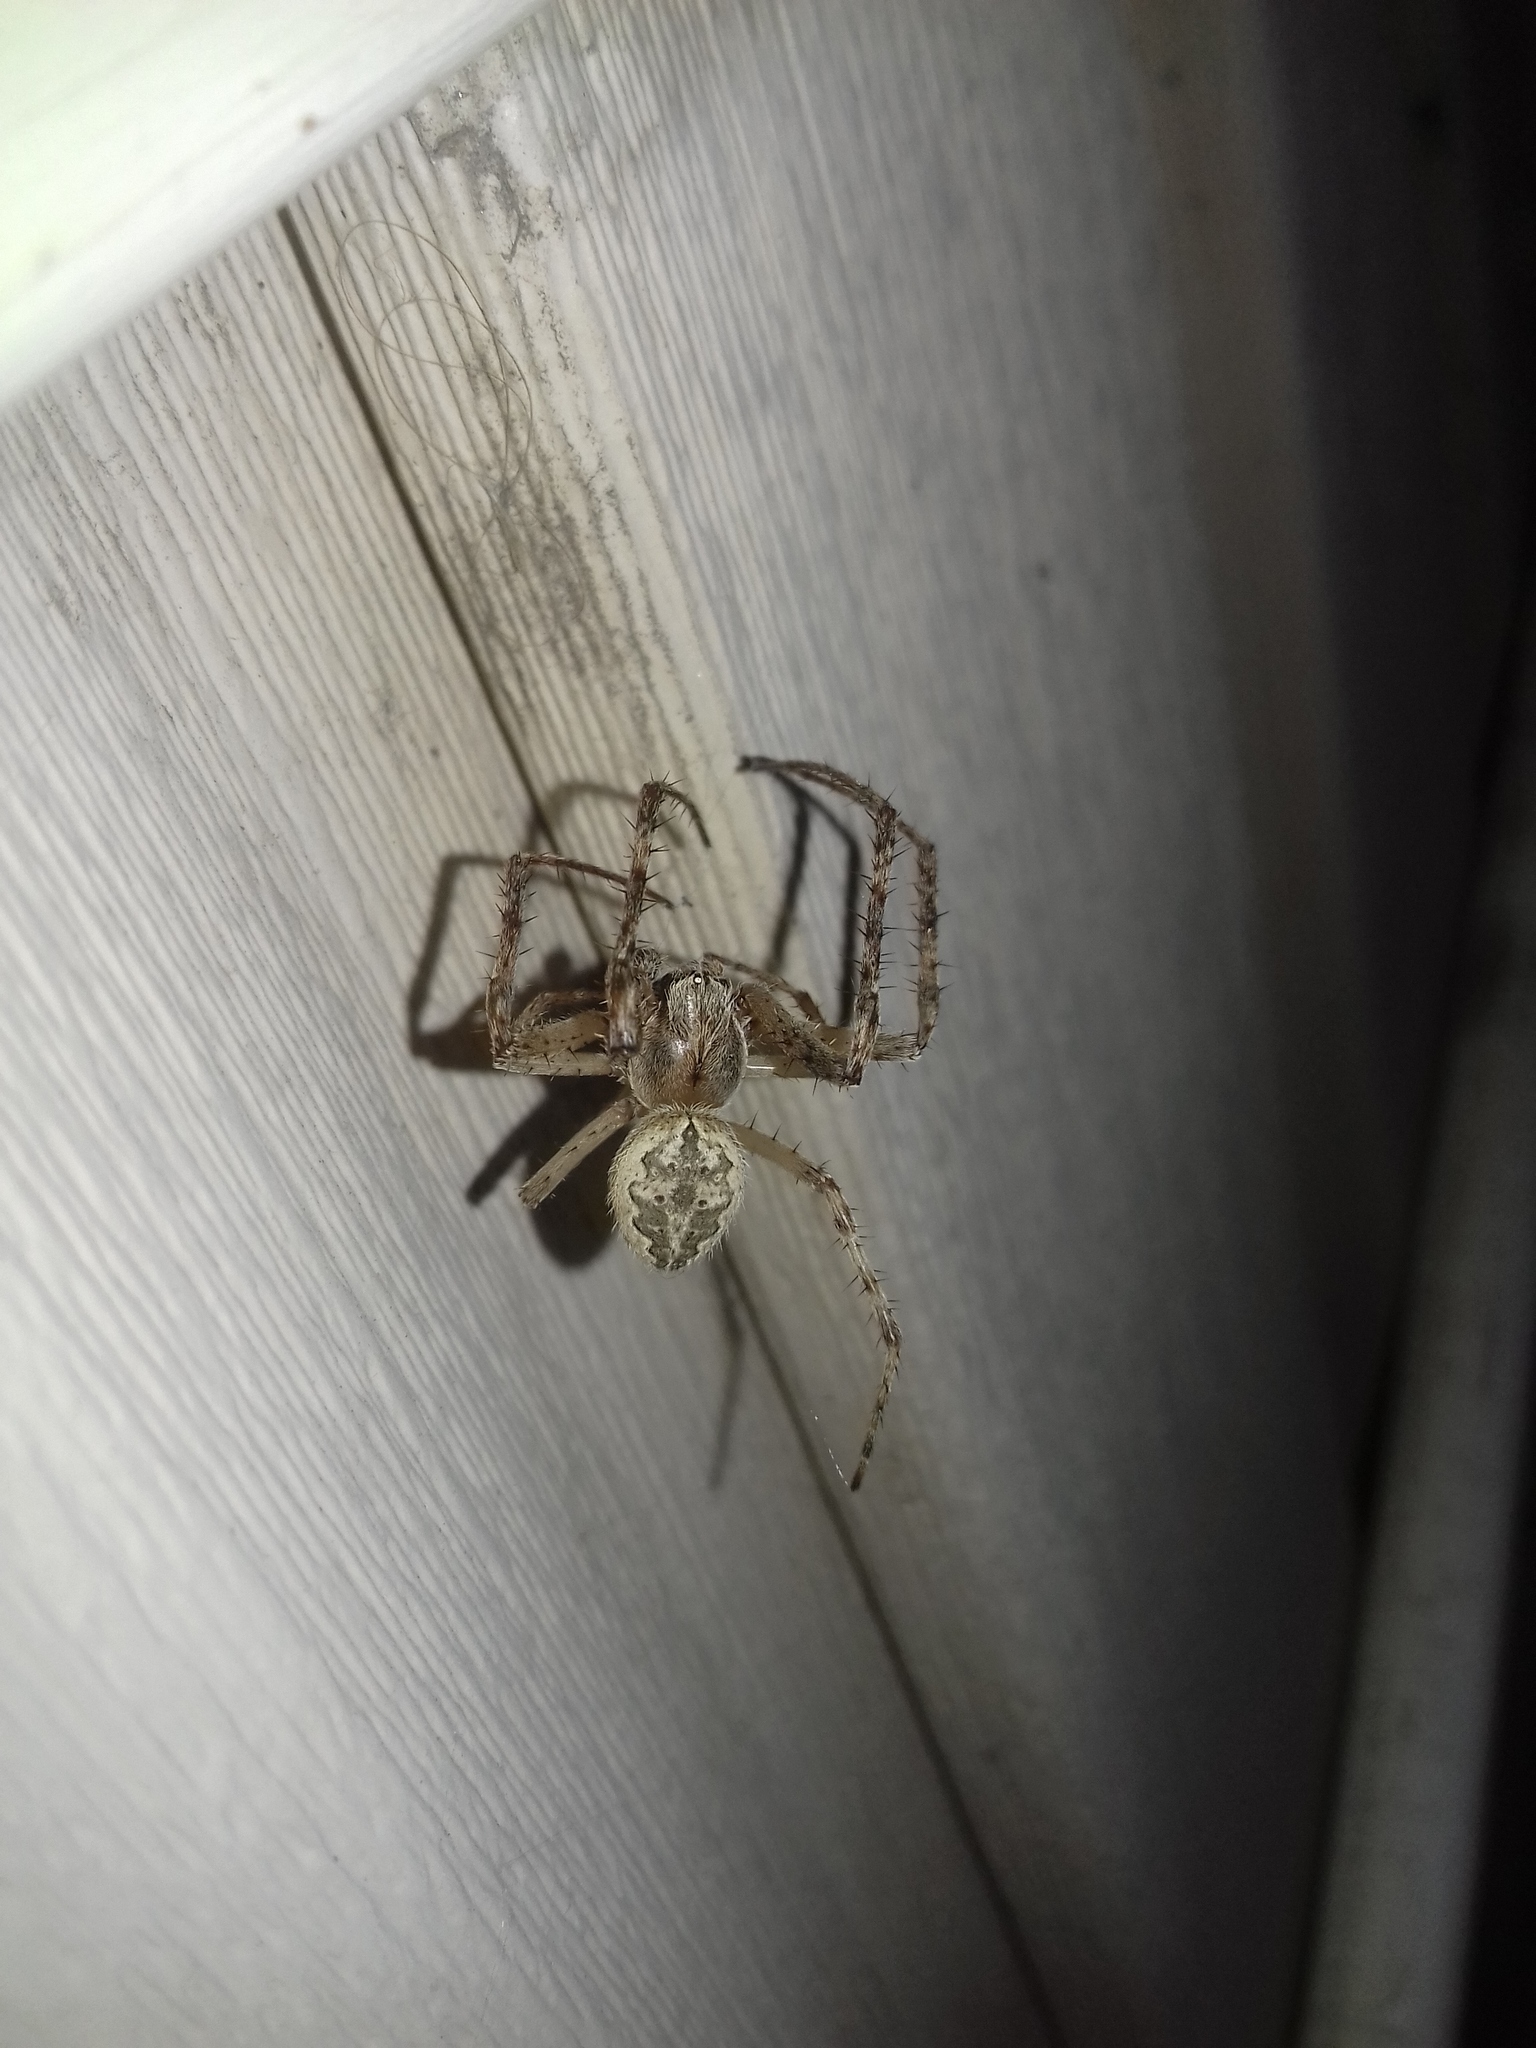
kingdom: Animalia
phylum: Arthropoda
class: Arachnida
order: Araneae
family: Araneidae
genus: Larinioides
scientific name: Larinioides ixobolus
